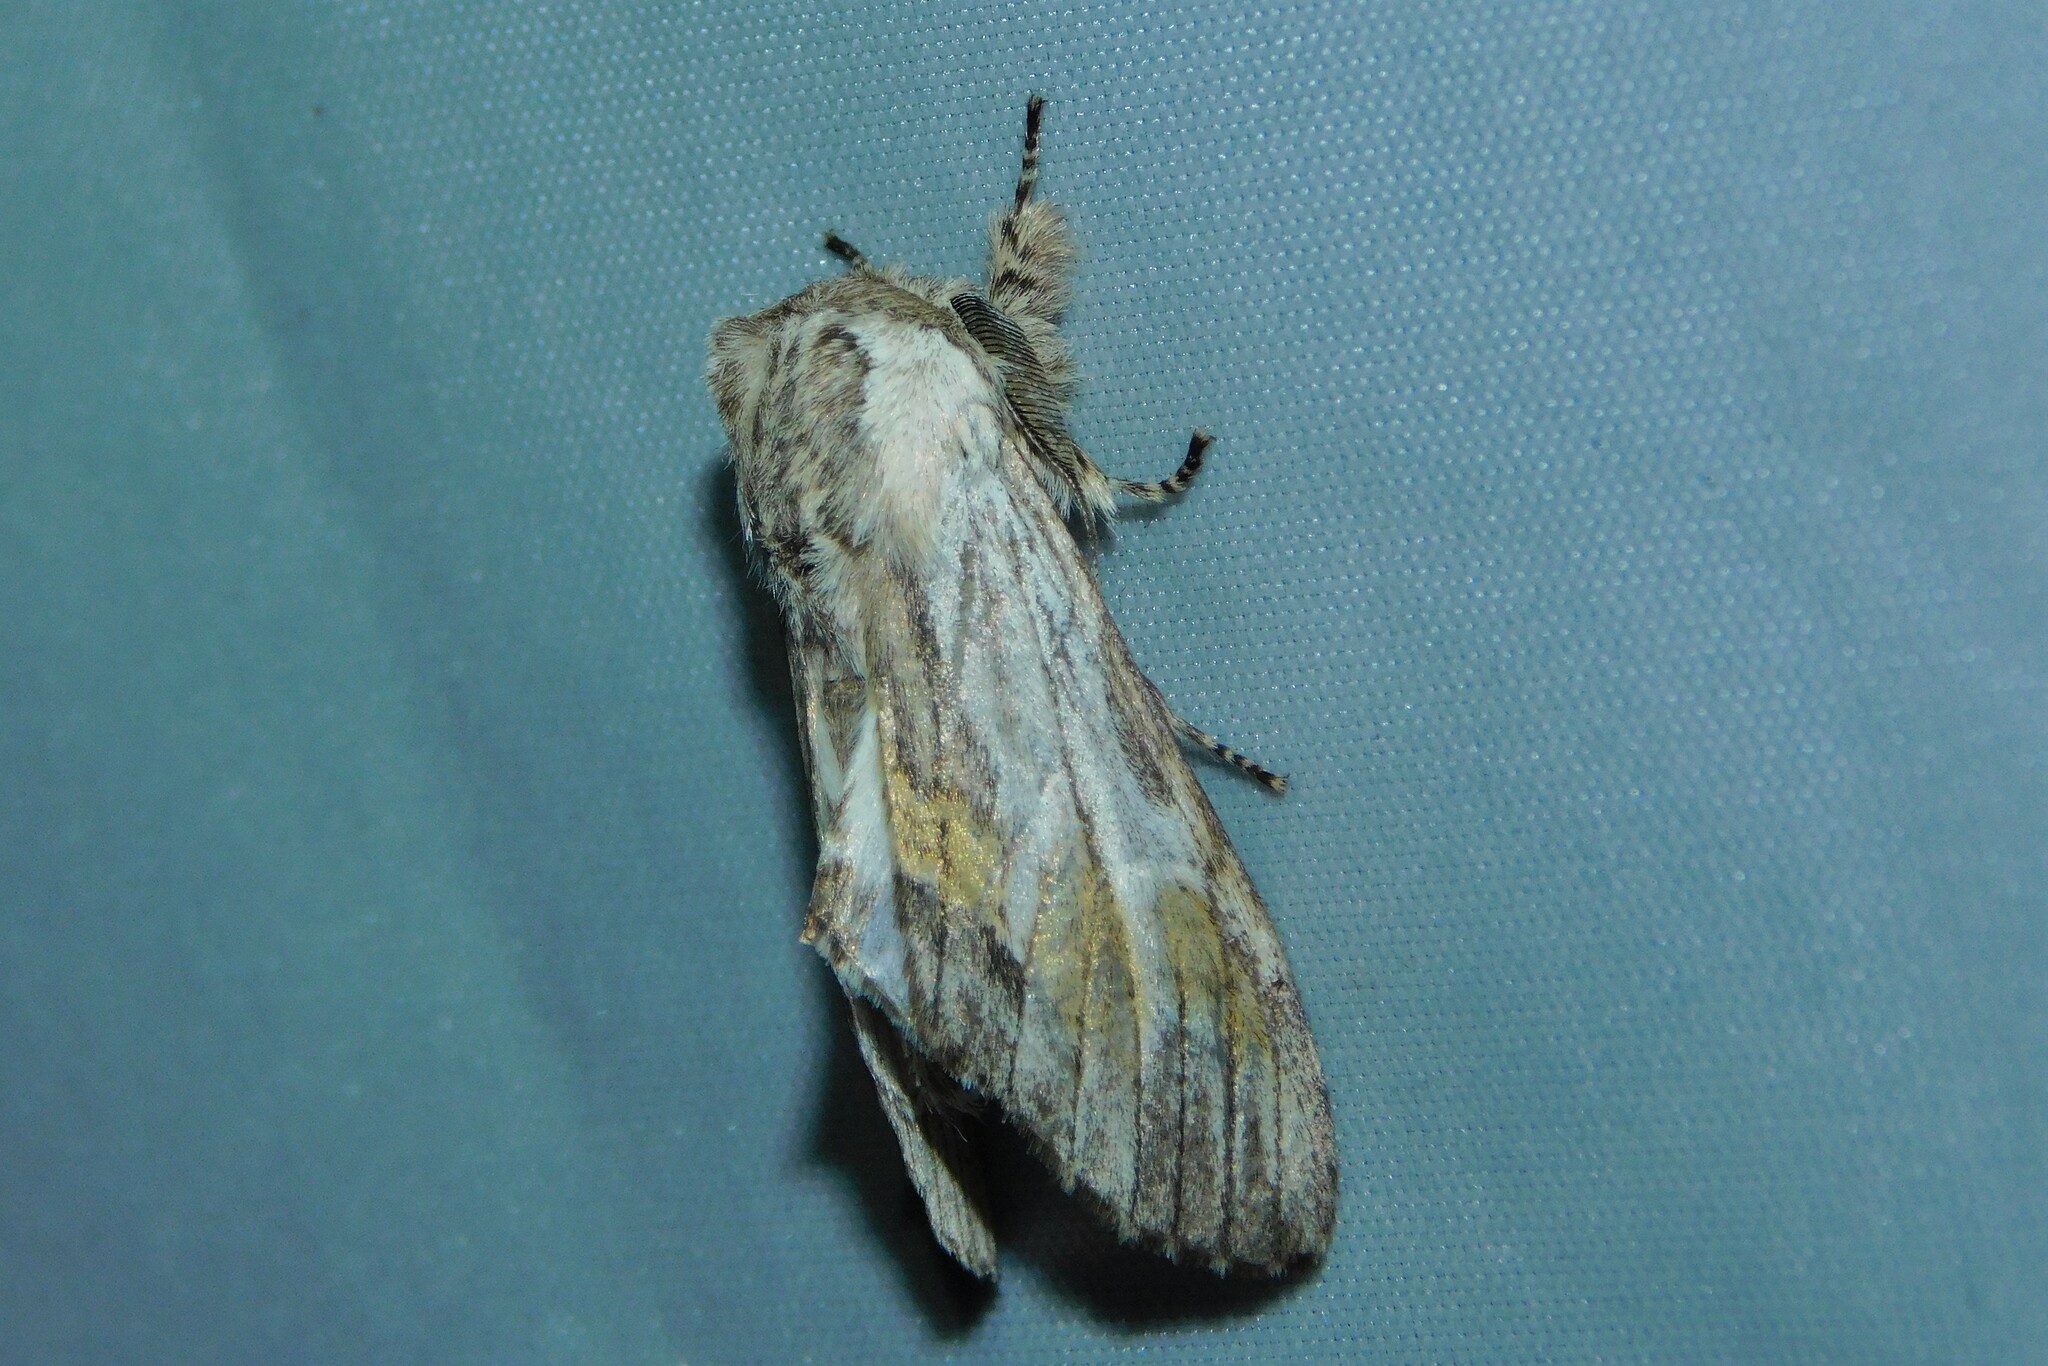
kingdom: Animalia
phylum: Arthropoda
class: Insecta
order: Lepidoptera
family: Notodontidae
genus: Harpyia
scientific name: Harpyia milhauseri
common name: Tawny prominent
